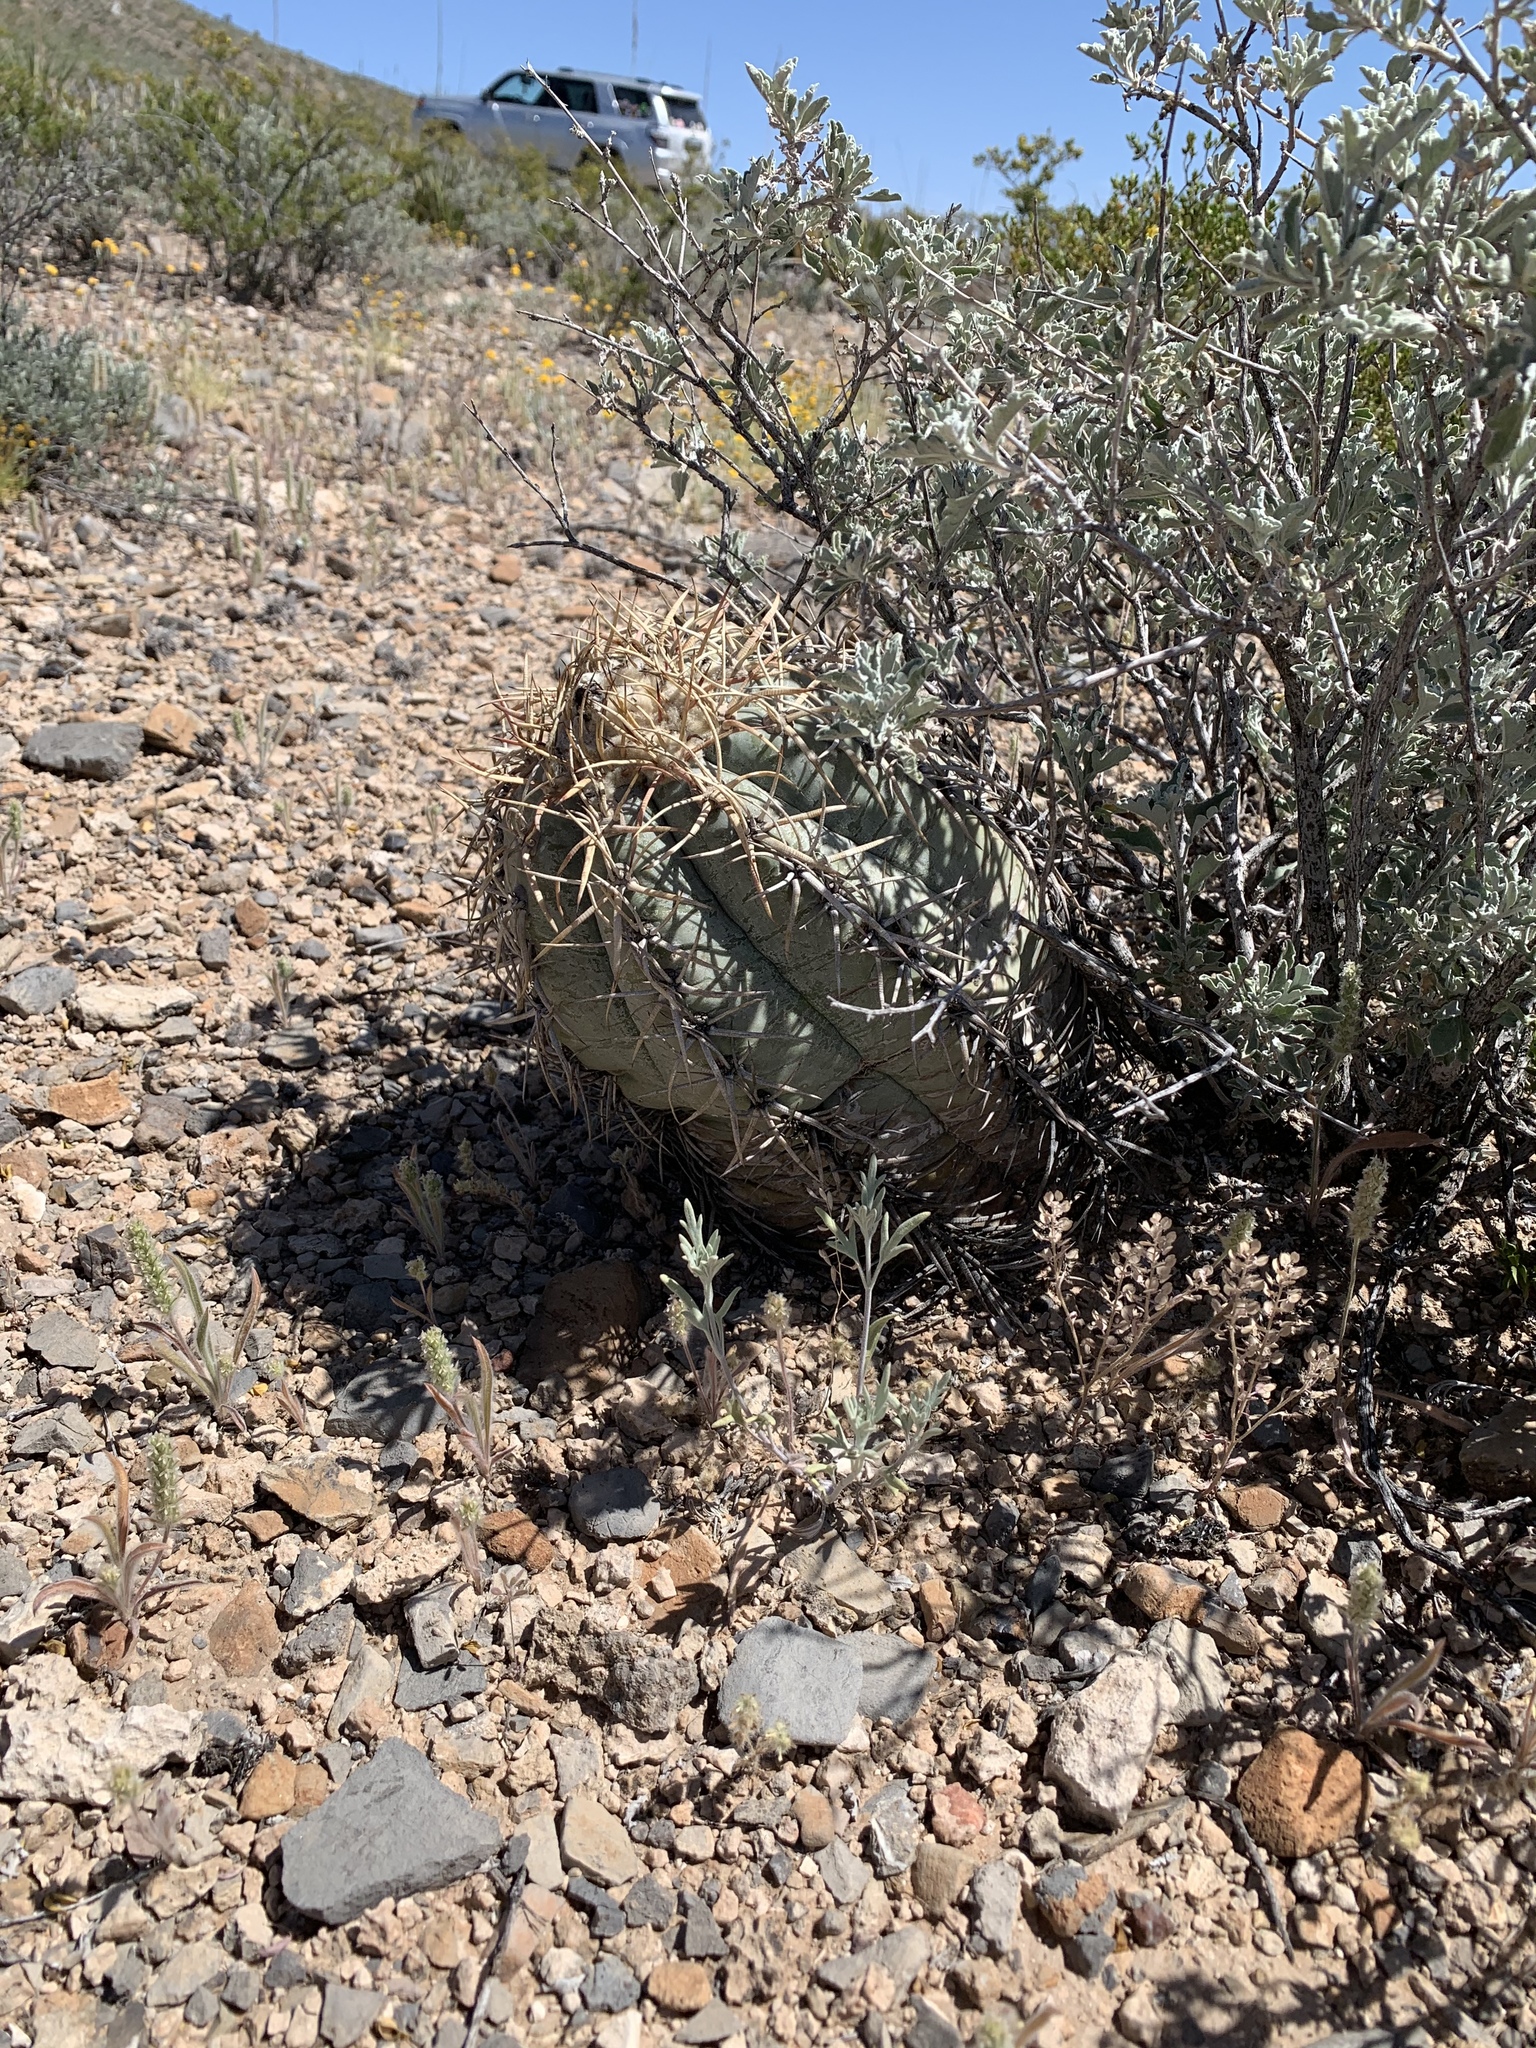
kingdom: Plantae
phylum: Tracheophyta
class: Magnoliopsida
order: Caryophyllales
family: Cactaceae
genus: Echinocactus
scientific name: Echinocactus horizonthalonius
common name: Devilshead
